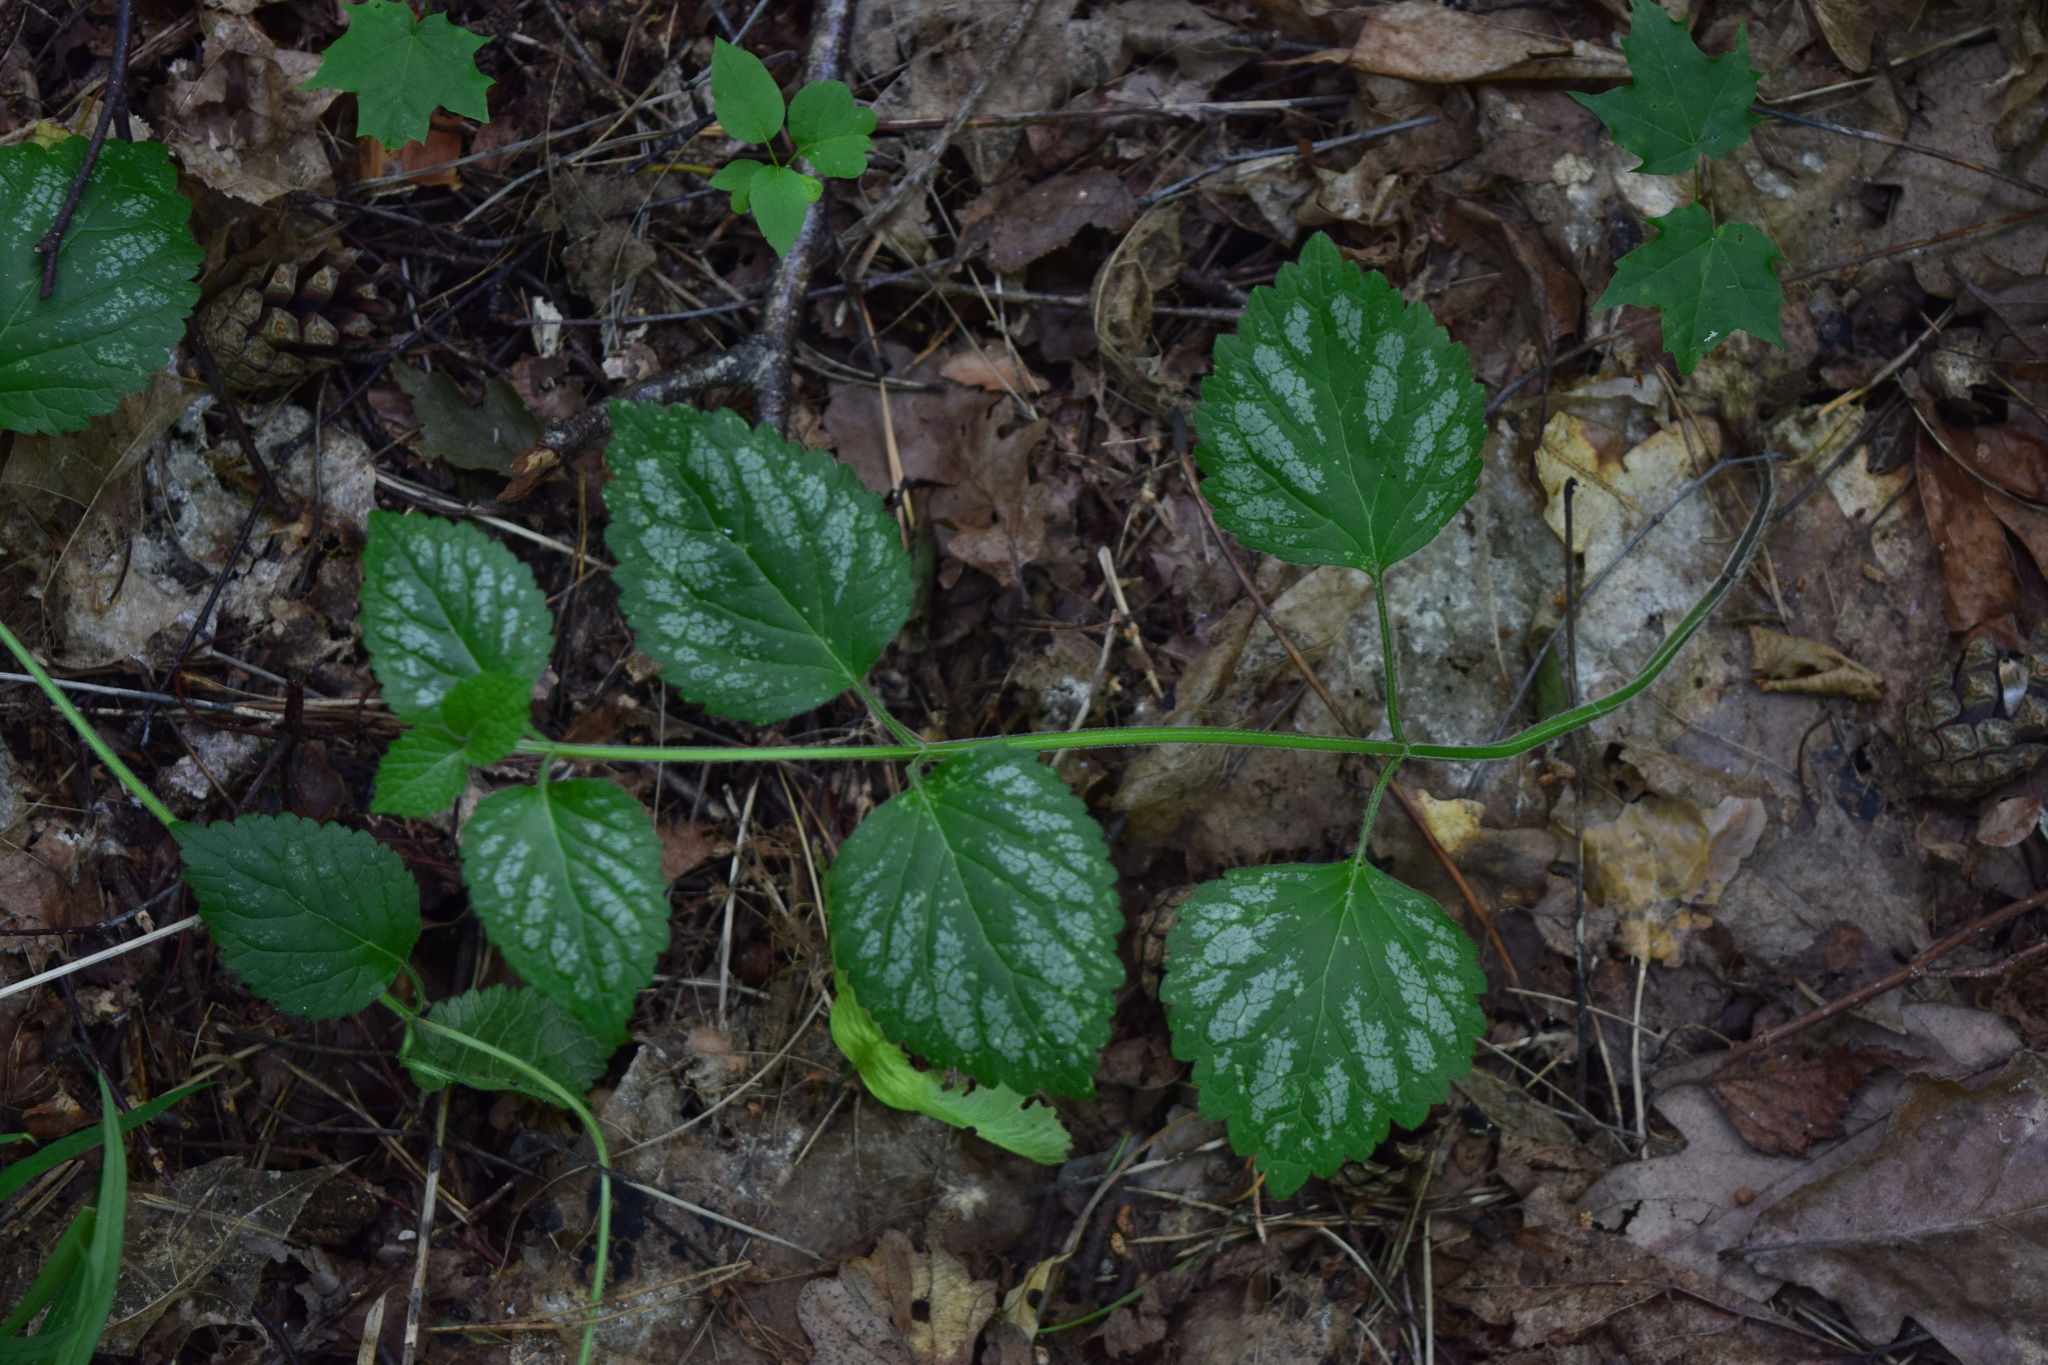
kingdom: Plantae
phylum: Tracheophyta
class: Magnoliopsida
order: Lamiales
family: Lamiaceae
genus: Lamium
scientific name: Lamium galeobdolon
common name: Yellow archangel
